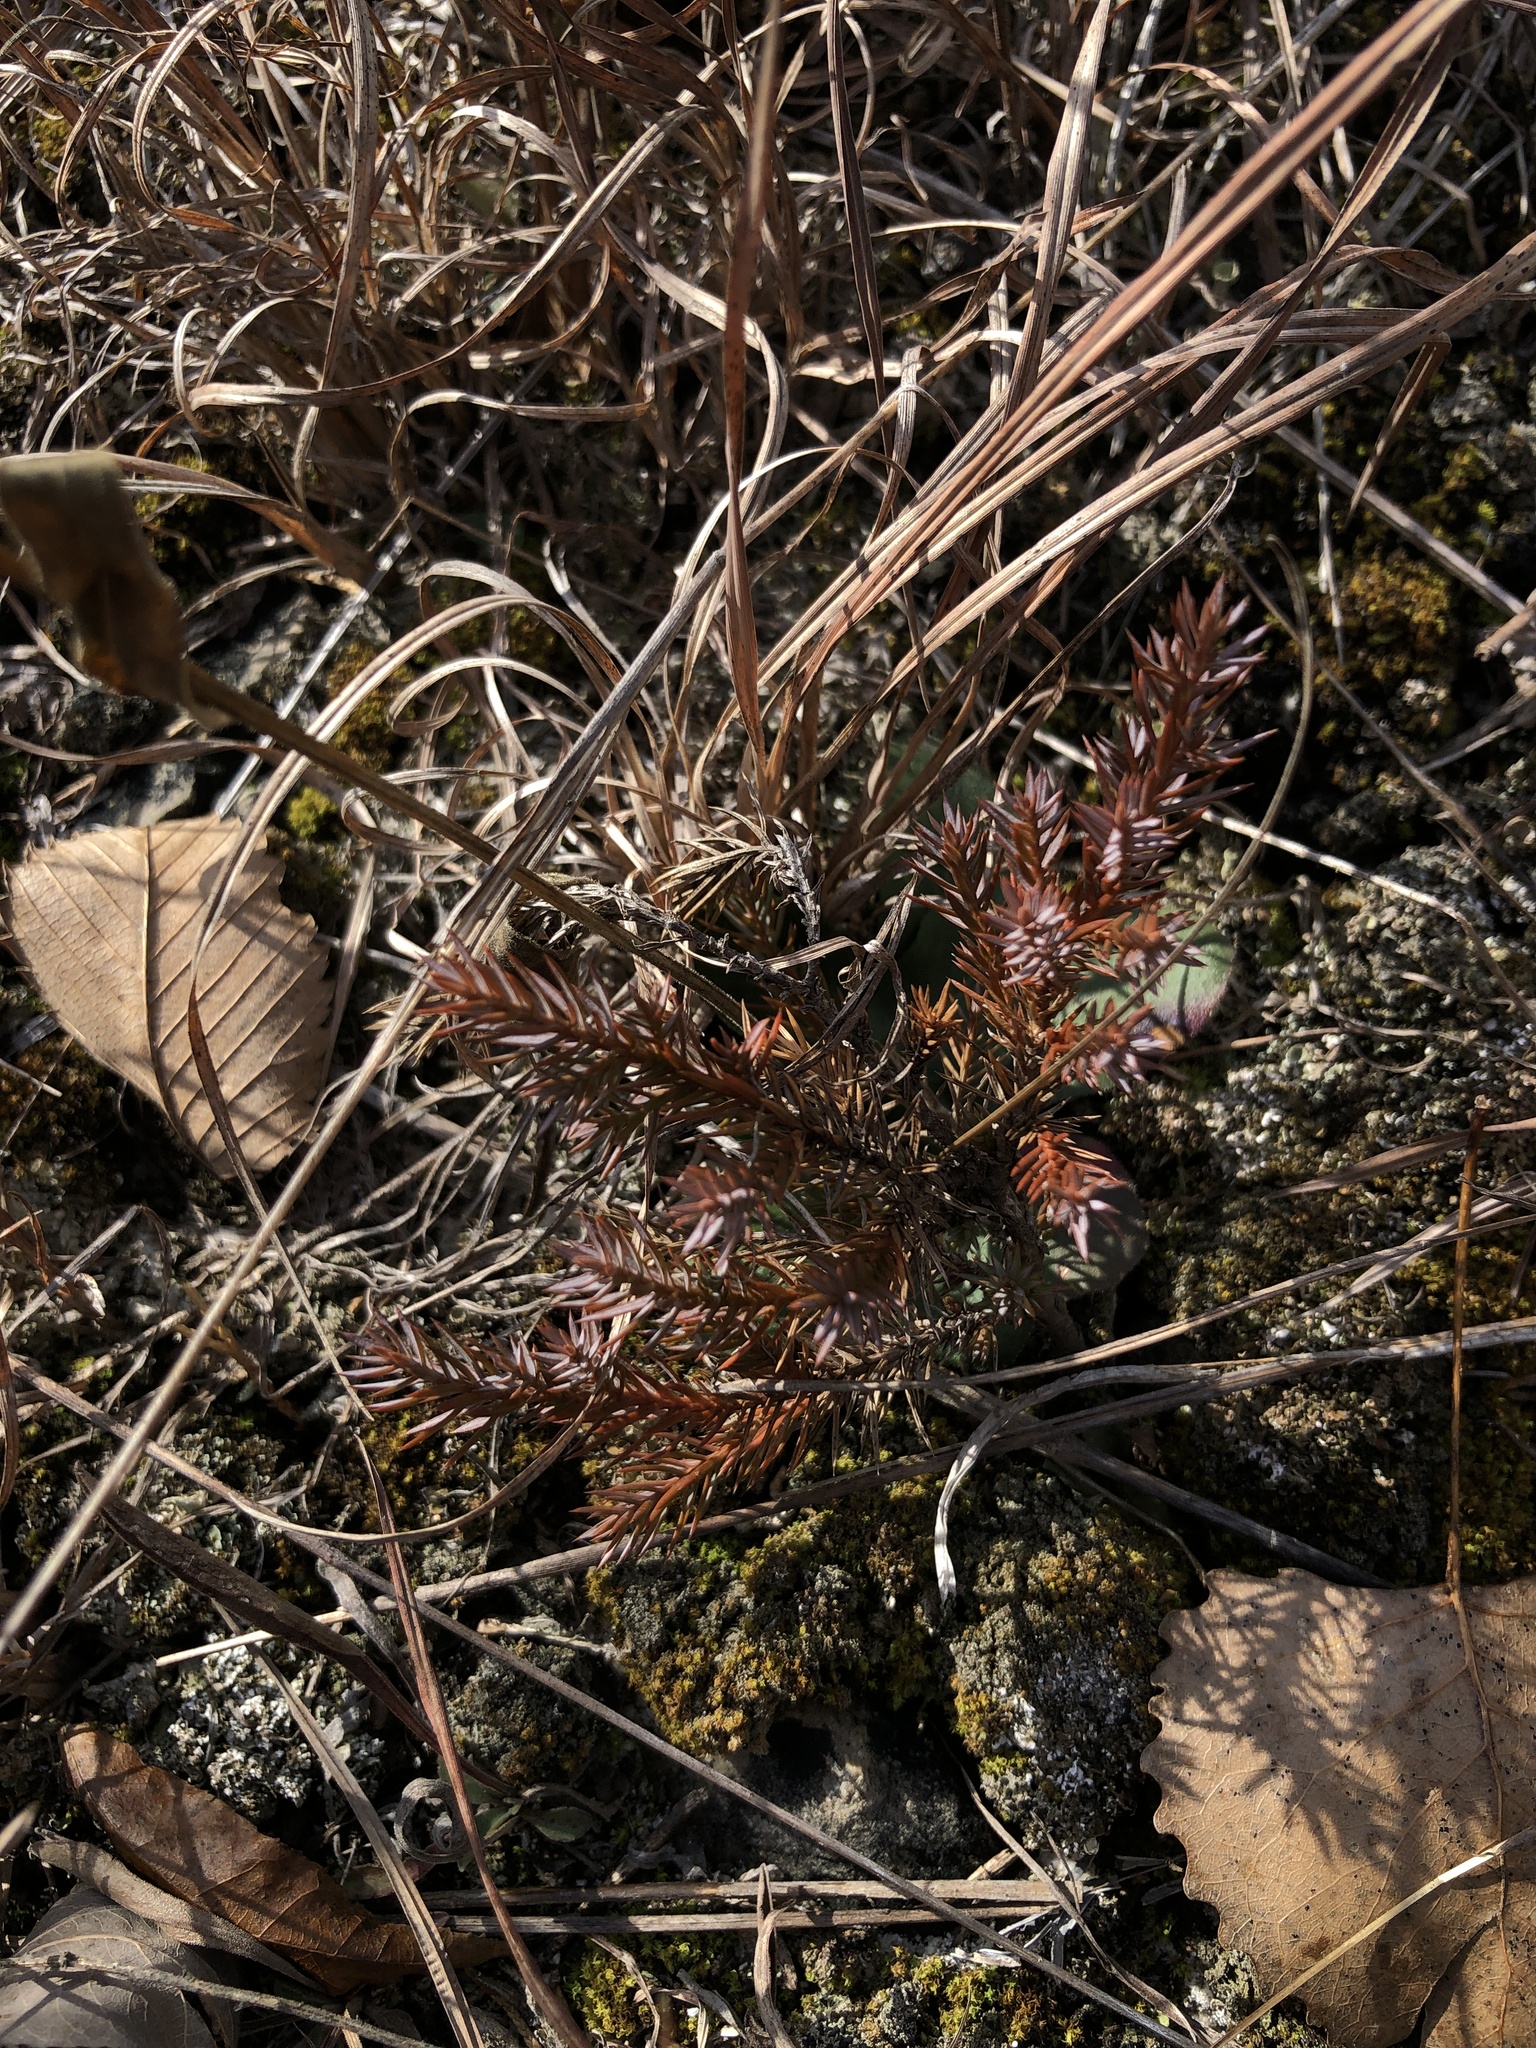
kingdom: Plantae
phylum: Tracheophyta
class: Pinopsida
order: Pinales
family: Cupressaceae
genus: Juniperus
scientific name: Juniperus virginiana
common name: Red juniper
